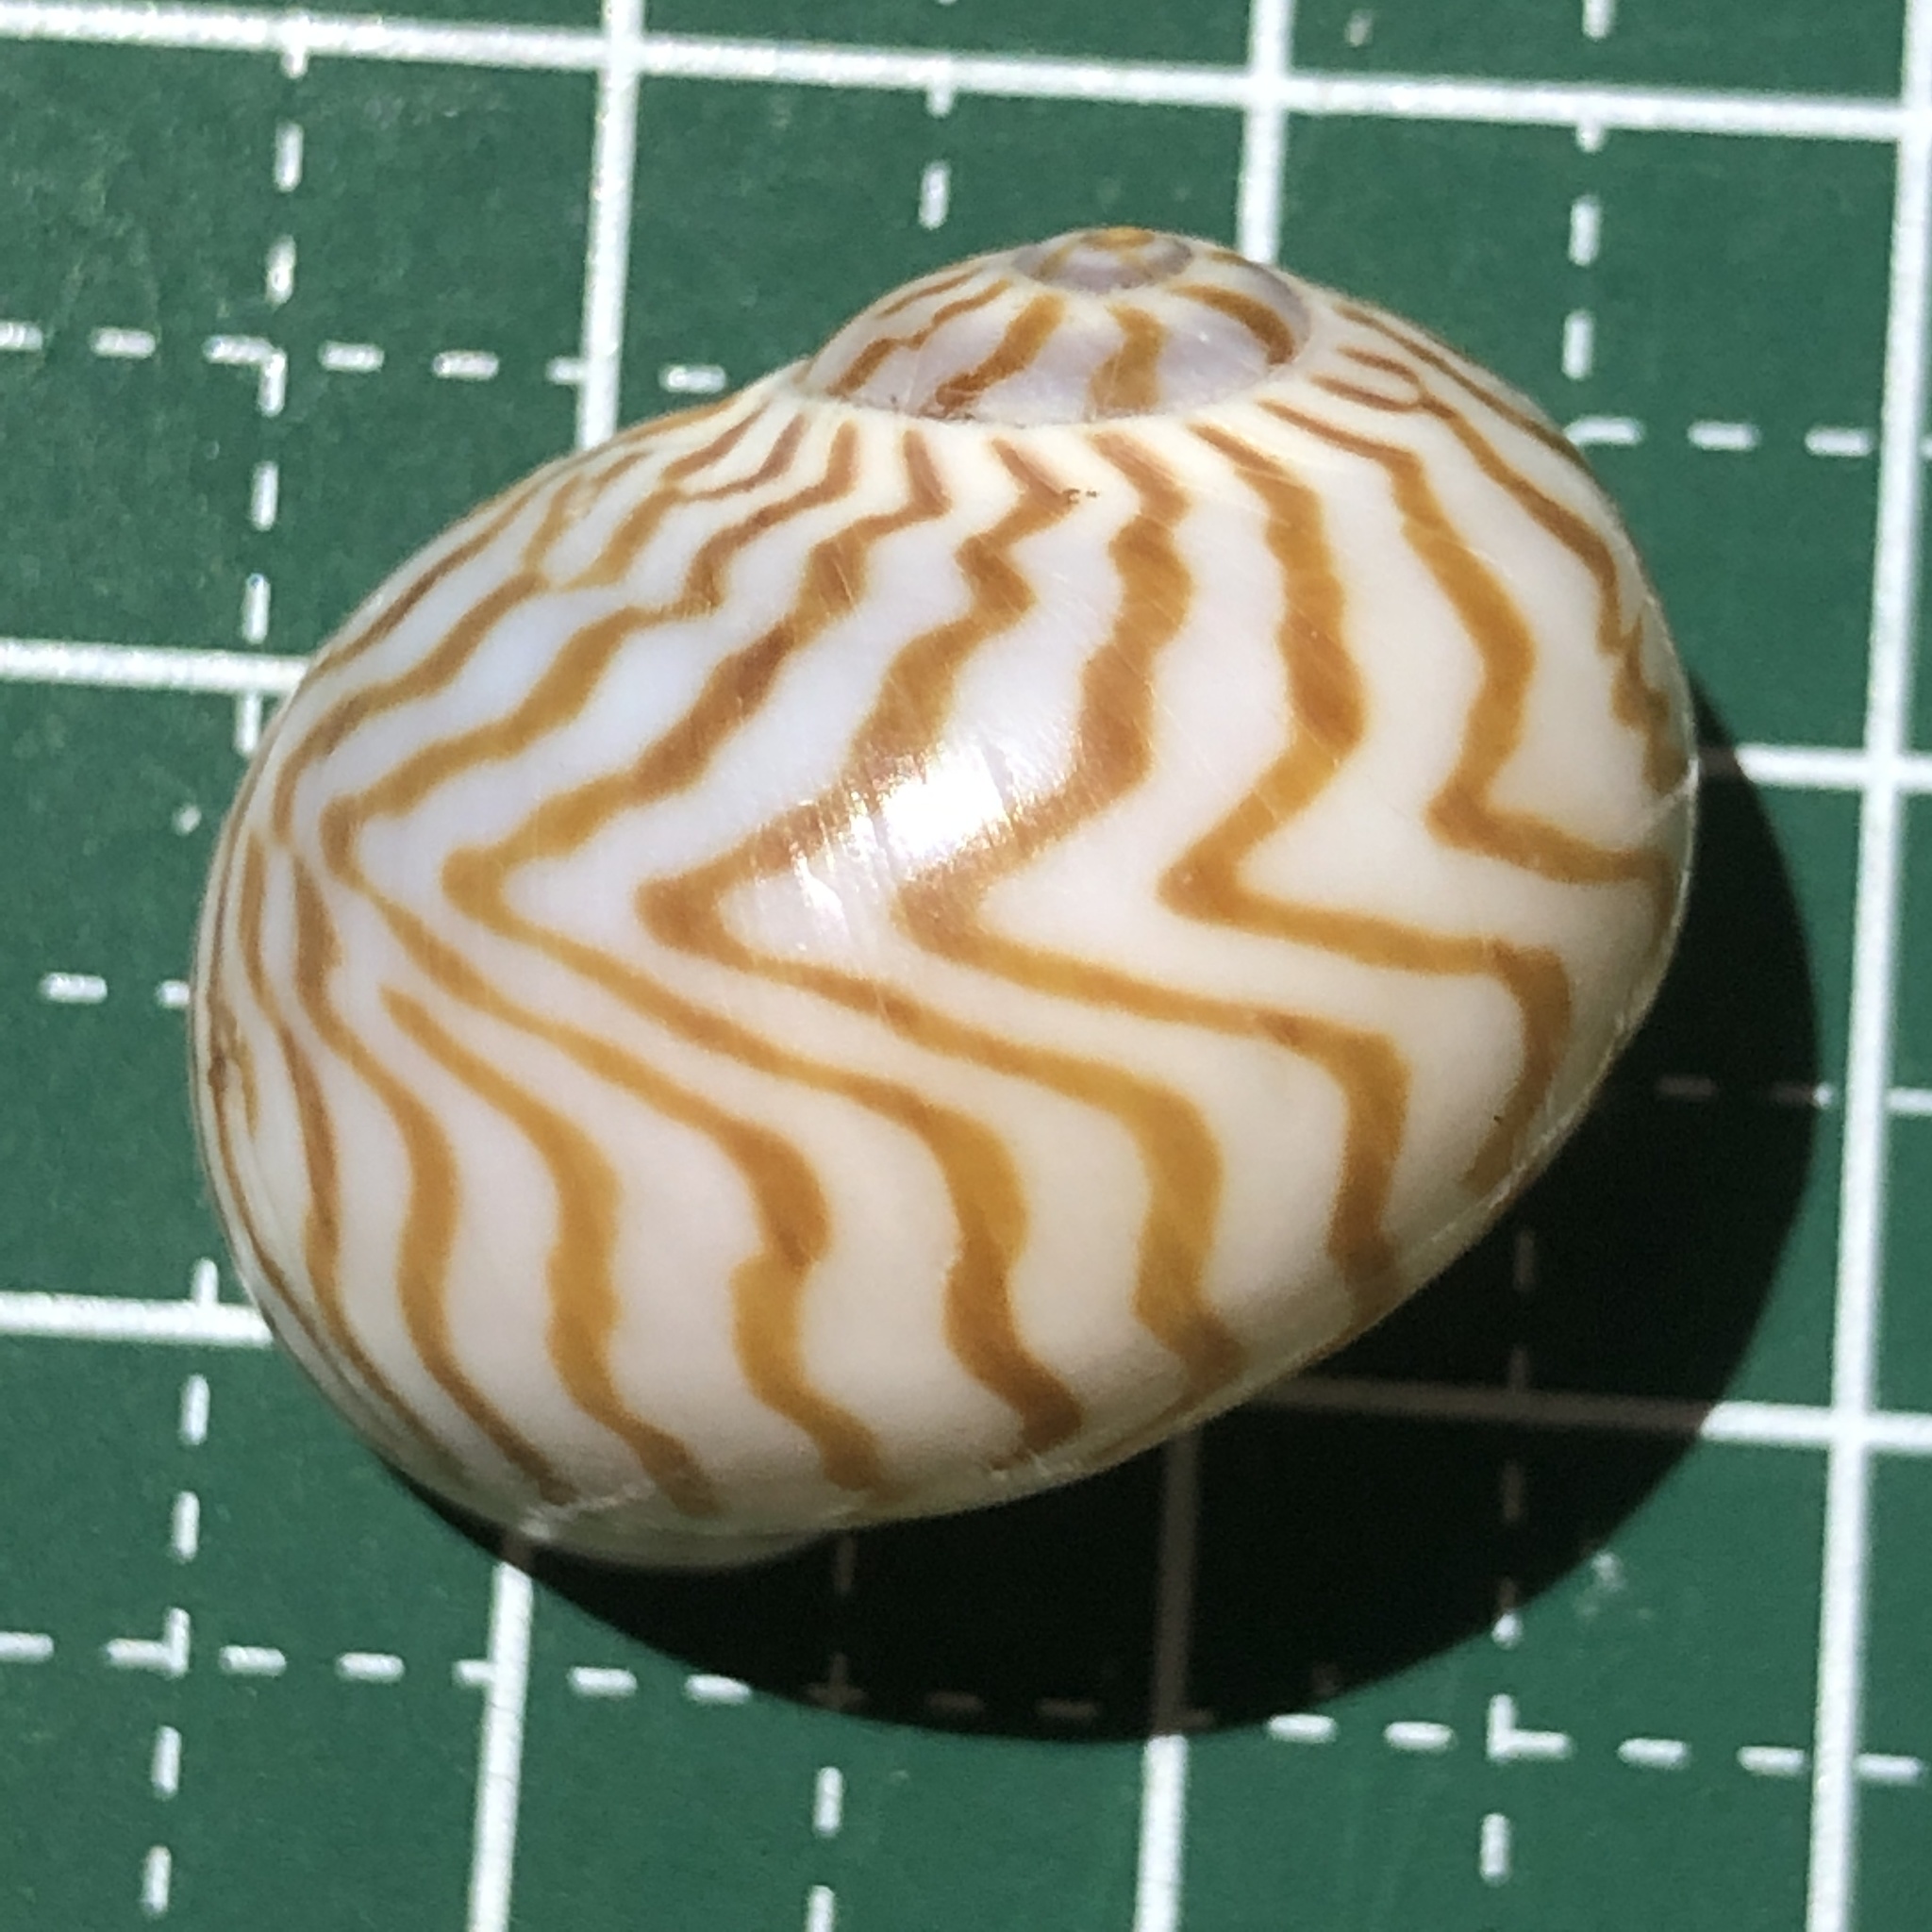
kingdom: Animalia
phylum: Mollusca
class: Gastropoda
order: Littorinimorpha
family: Naticidae
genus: Tanea
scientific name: Tanea undulata
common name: Wavy moonsnail
